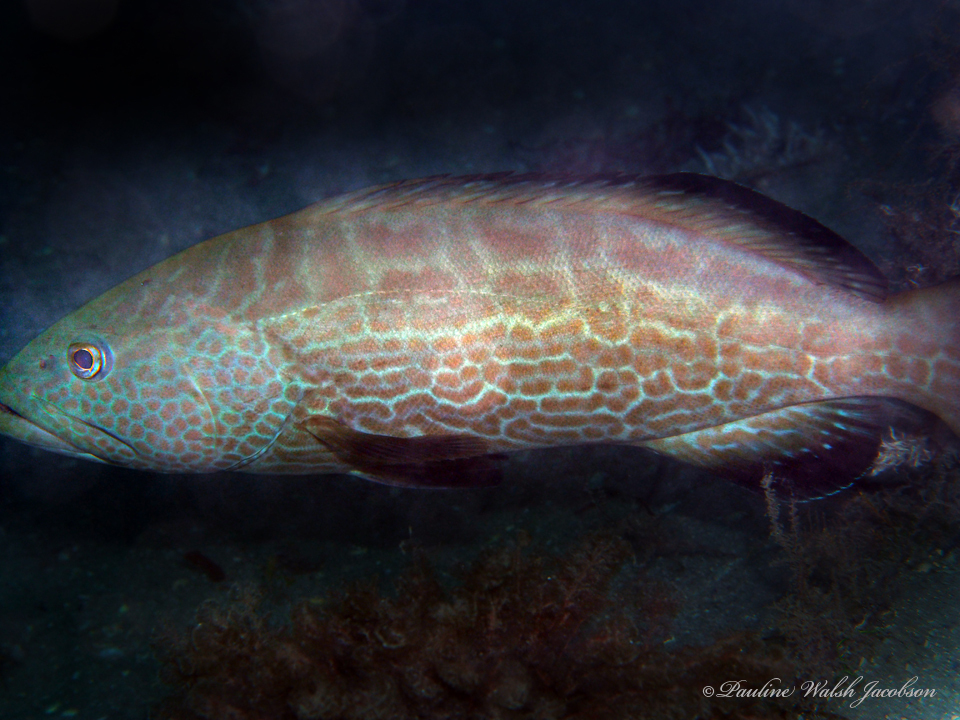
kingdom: Animalia
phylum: Chordata
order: Perciformes
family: Serranidae
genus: Mycteroperca
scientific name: Mycteroperca bonaci
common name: Black grouper
